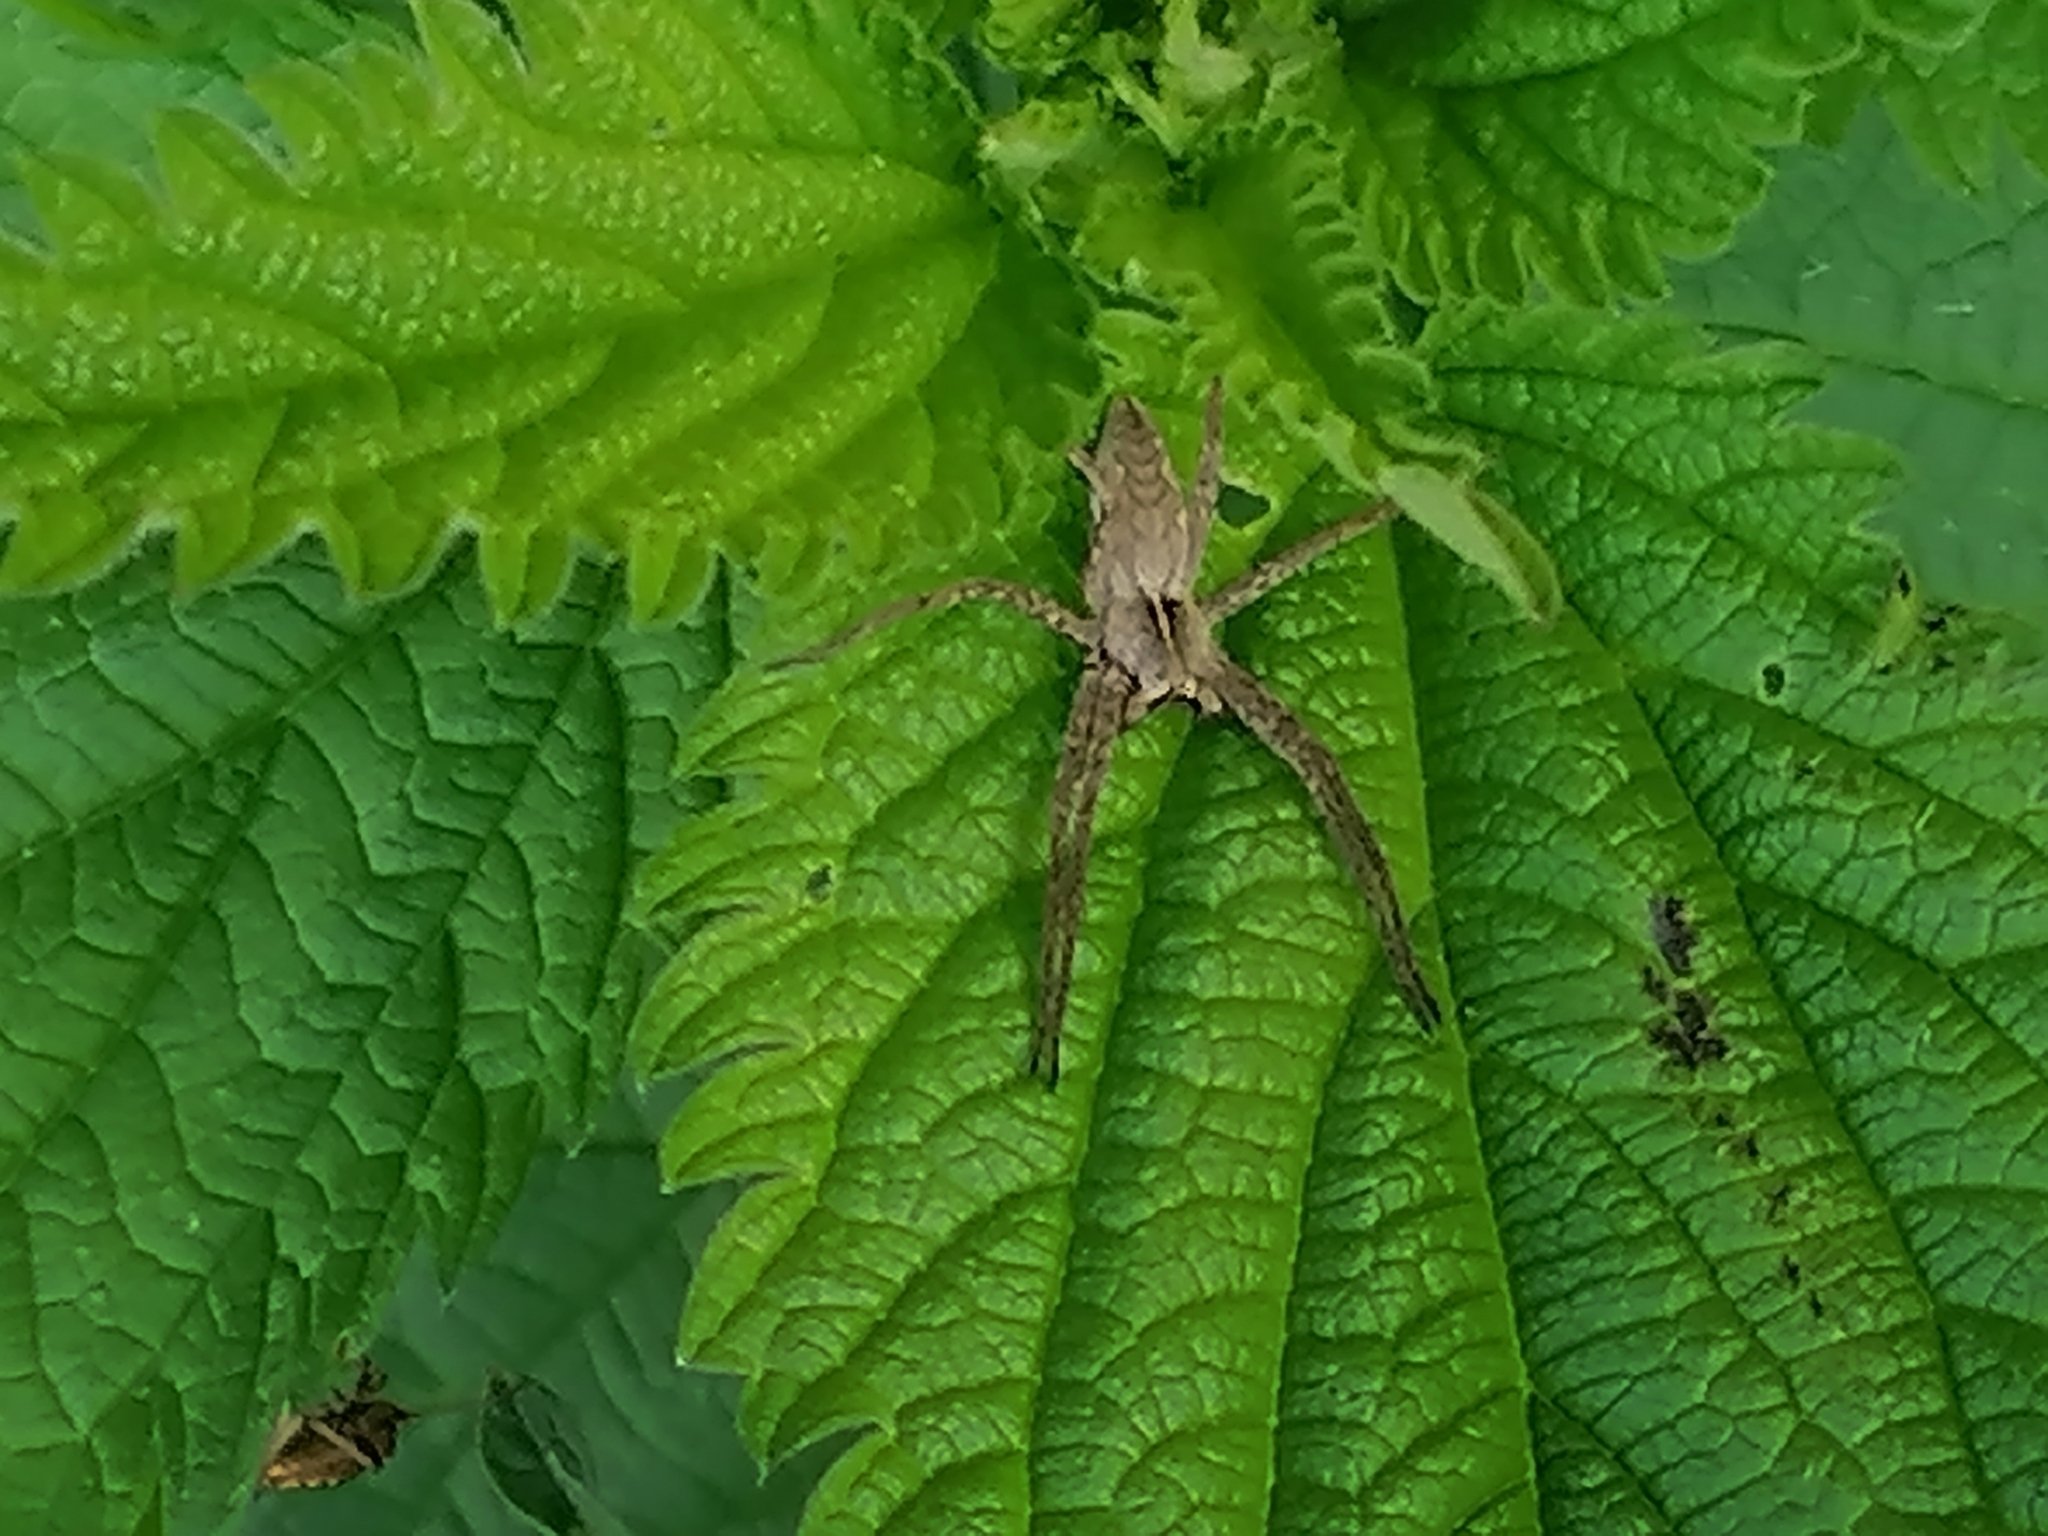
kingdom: Animalia
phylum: Arthropoda
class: Arachnida
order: Araneae
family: Pisauridae
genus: Pisaura
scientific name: Pisaura
